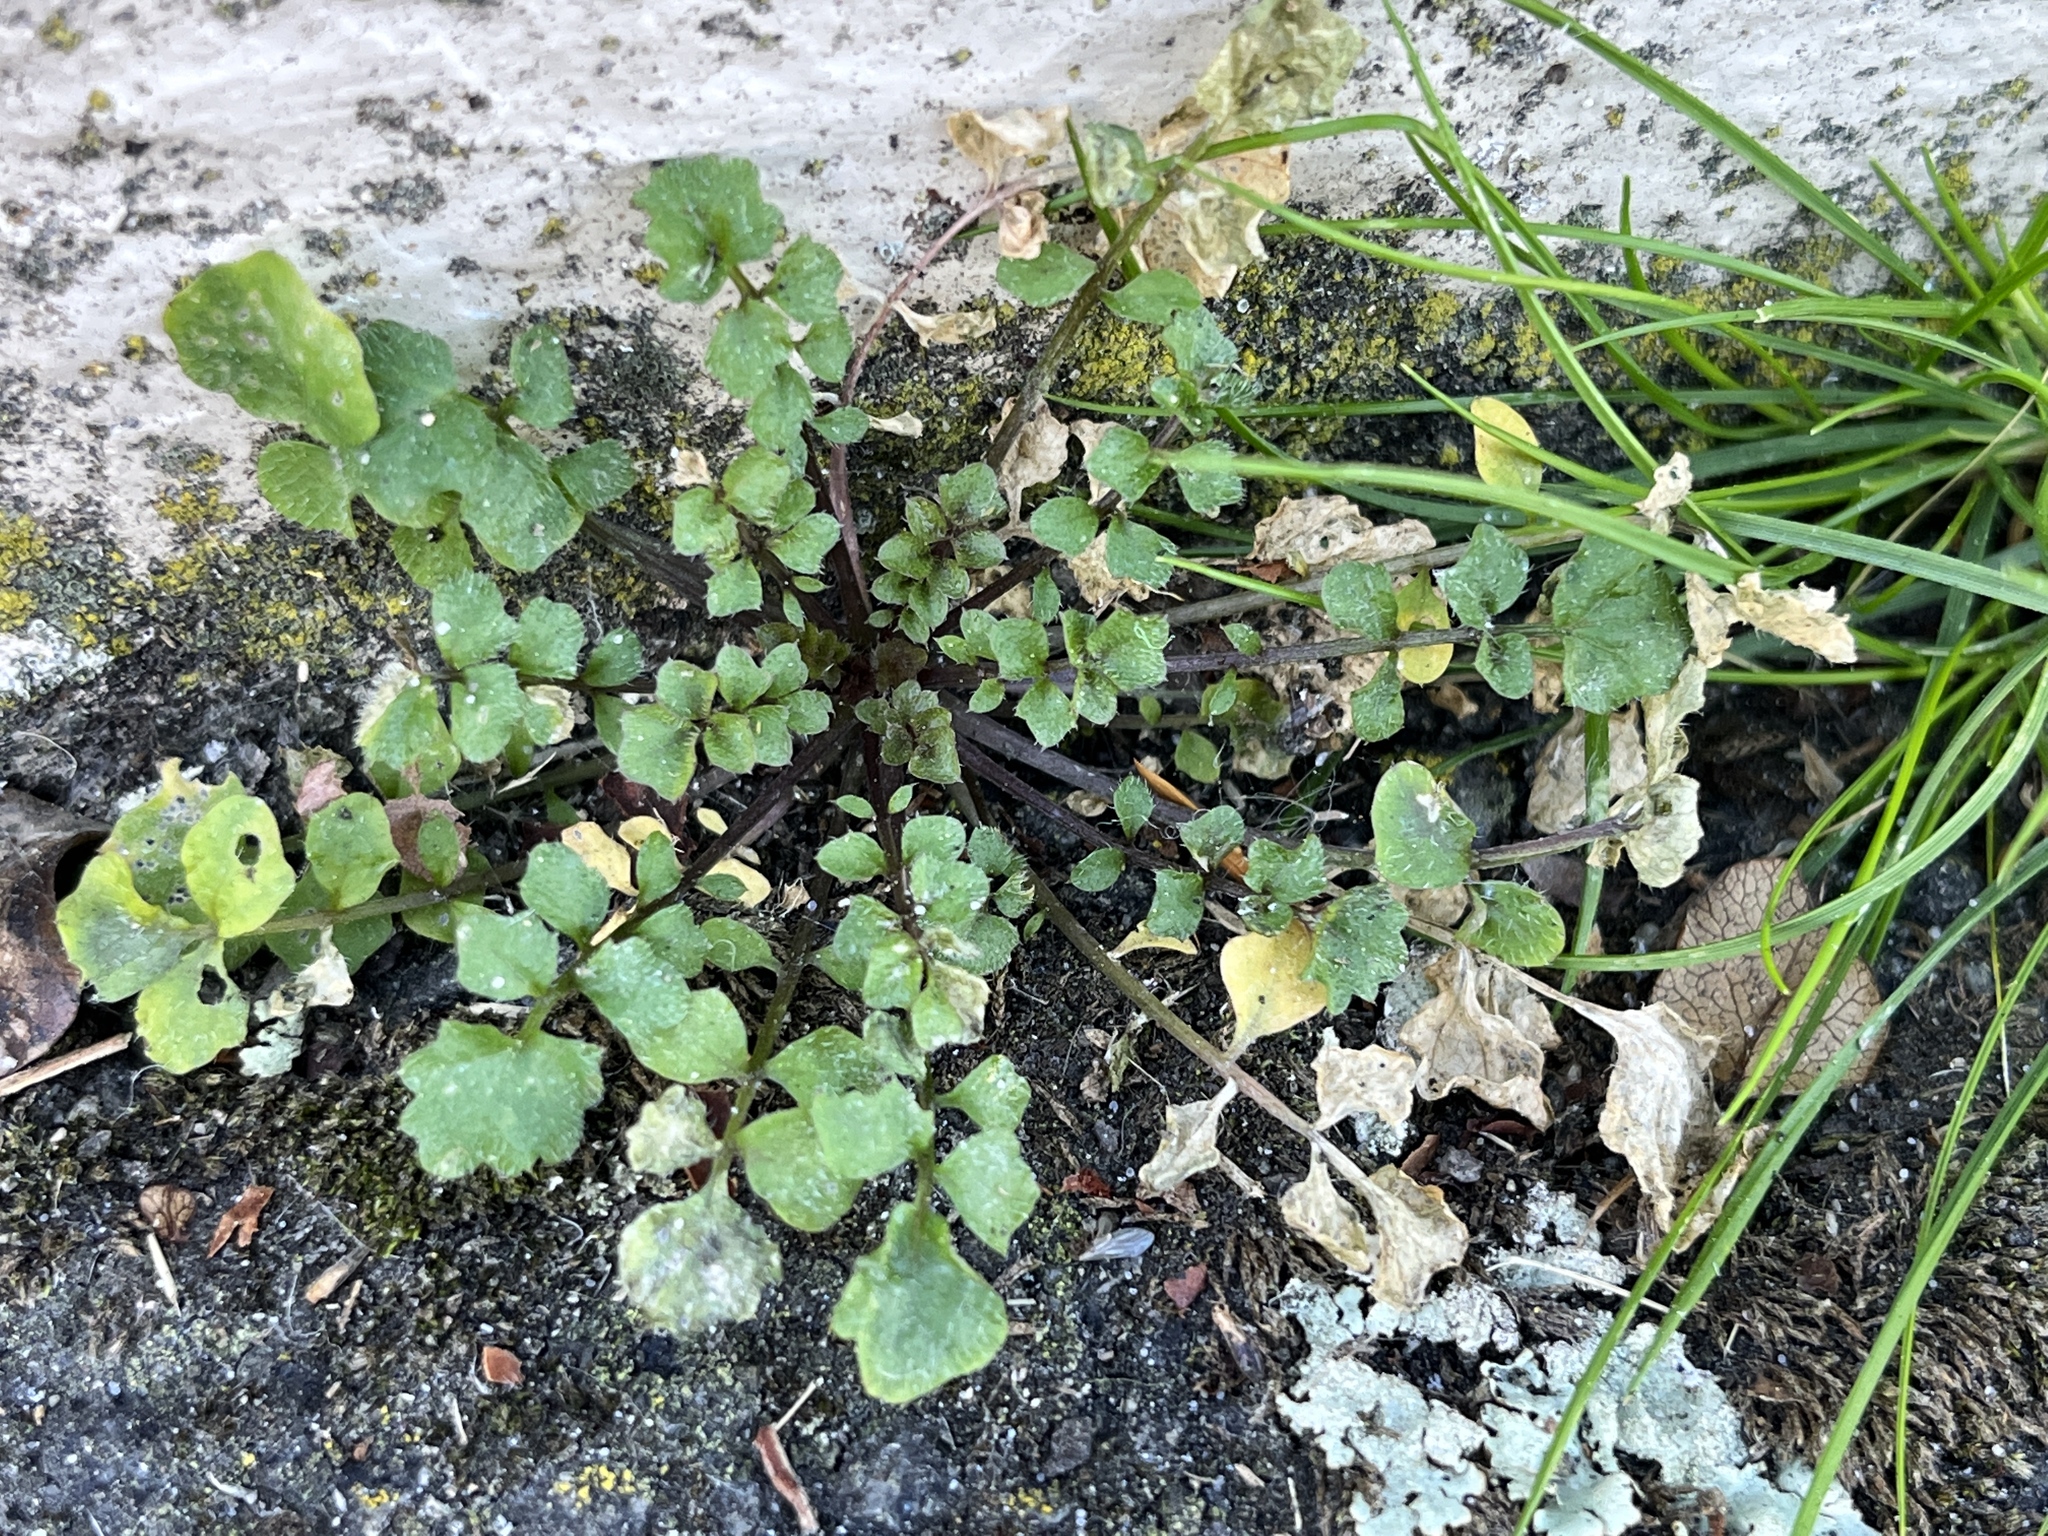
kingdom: Plantae
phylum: Tracheophyta
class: Magnoliopsida
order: Brassicales
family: Brassicaceae
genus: Cardamine
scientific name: Cardamine hirsuta
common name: Hairy bittercress
